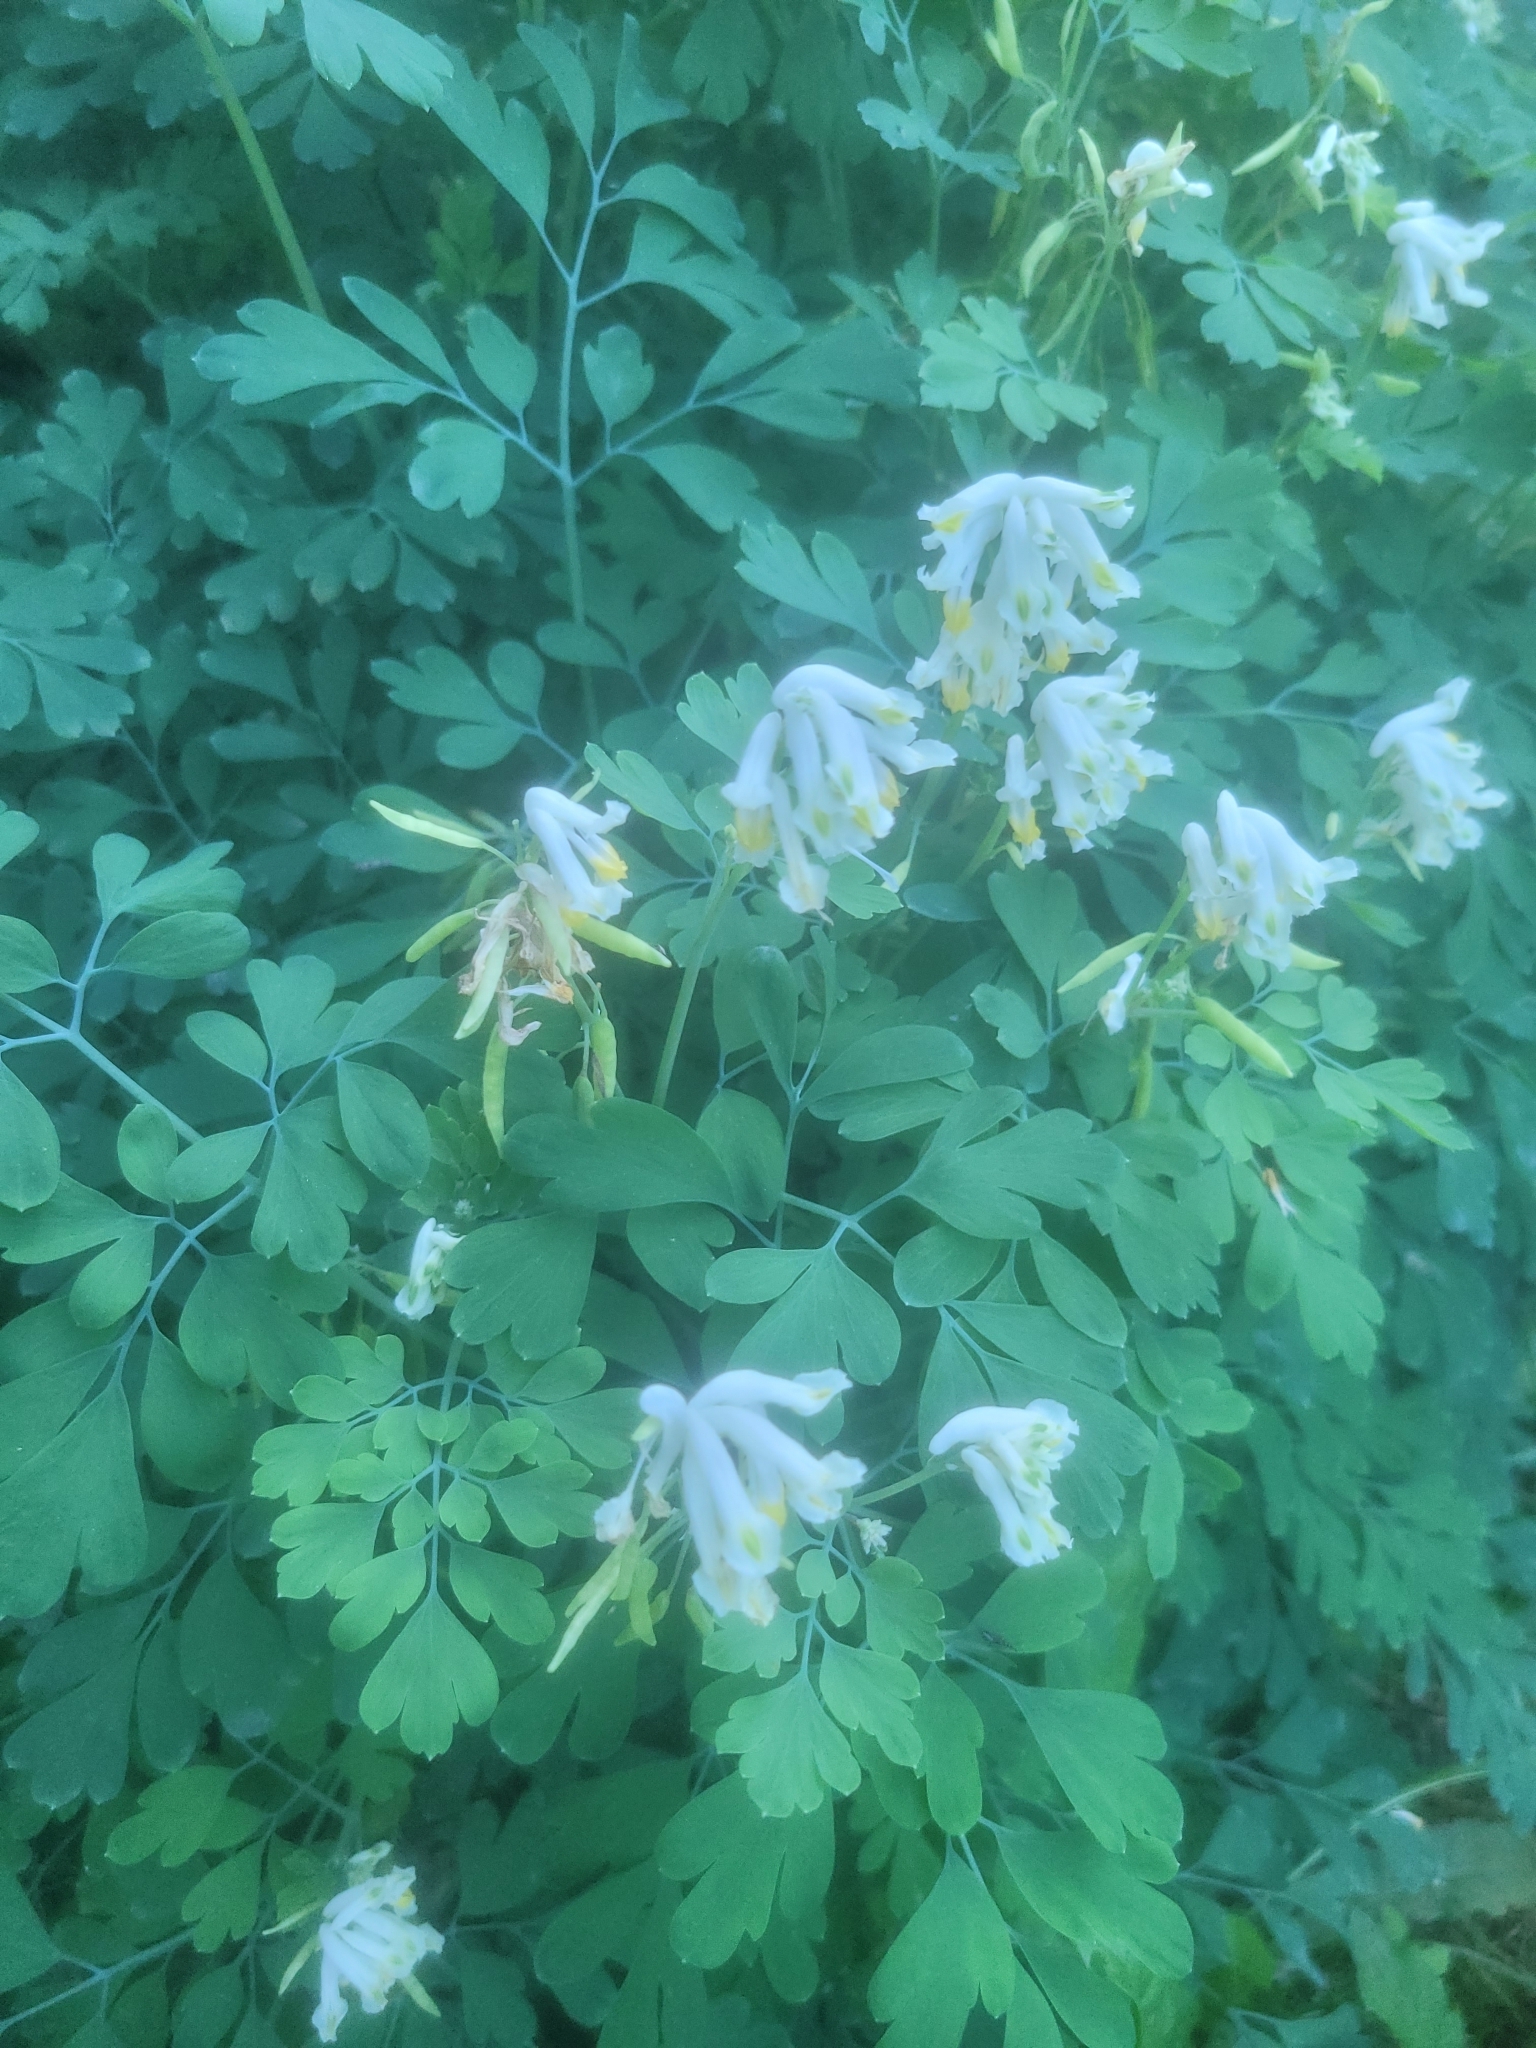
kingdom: Plantae
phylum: Tracheophyta
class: Magnoliopsida
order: Ranunculales
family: Papaveraceae
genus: Pseudofumaria
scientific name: Pseudofumaria alba
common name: Pale corydalis
